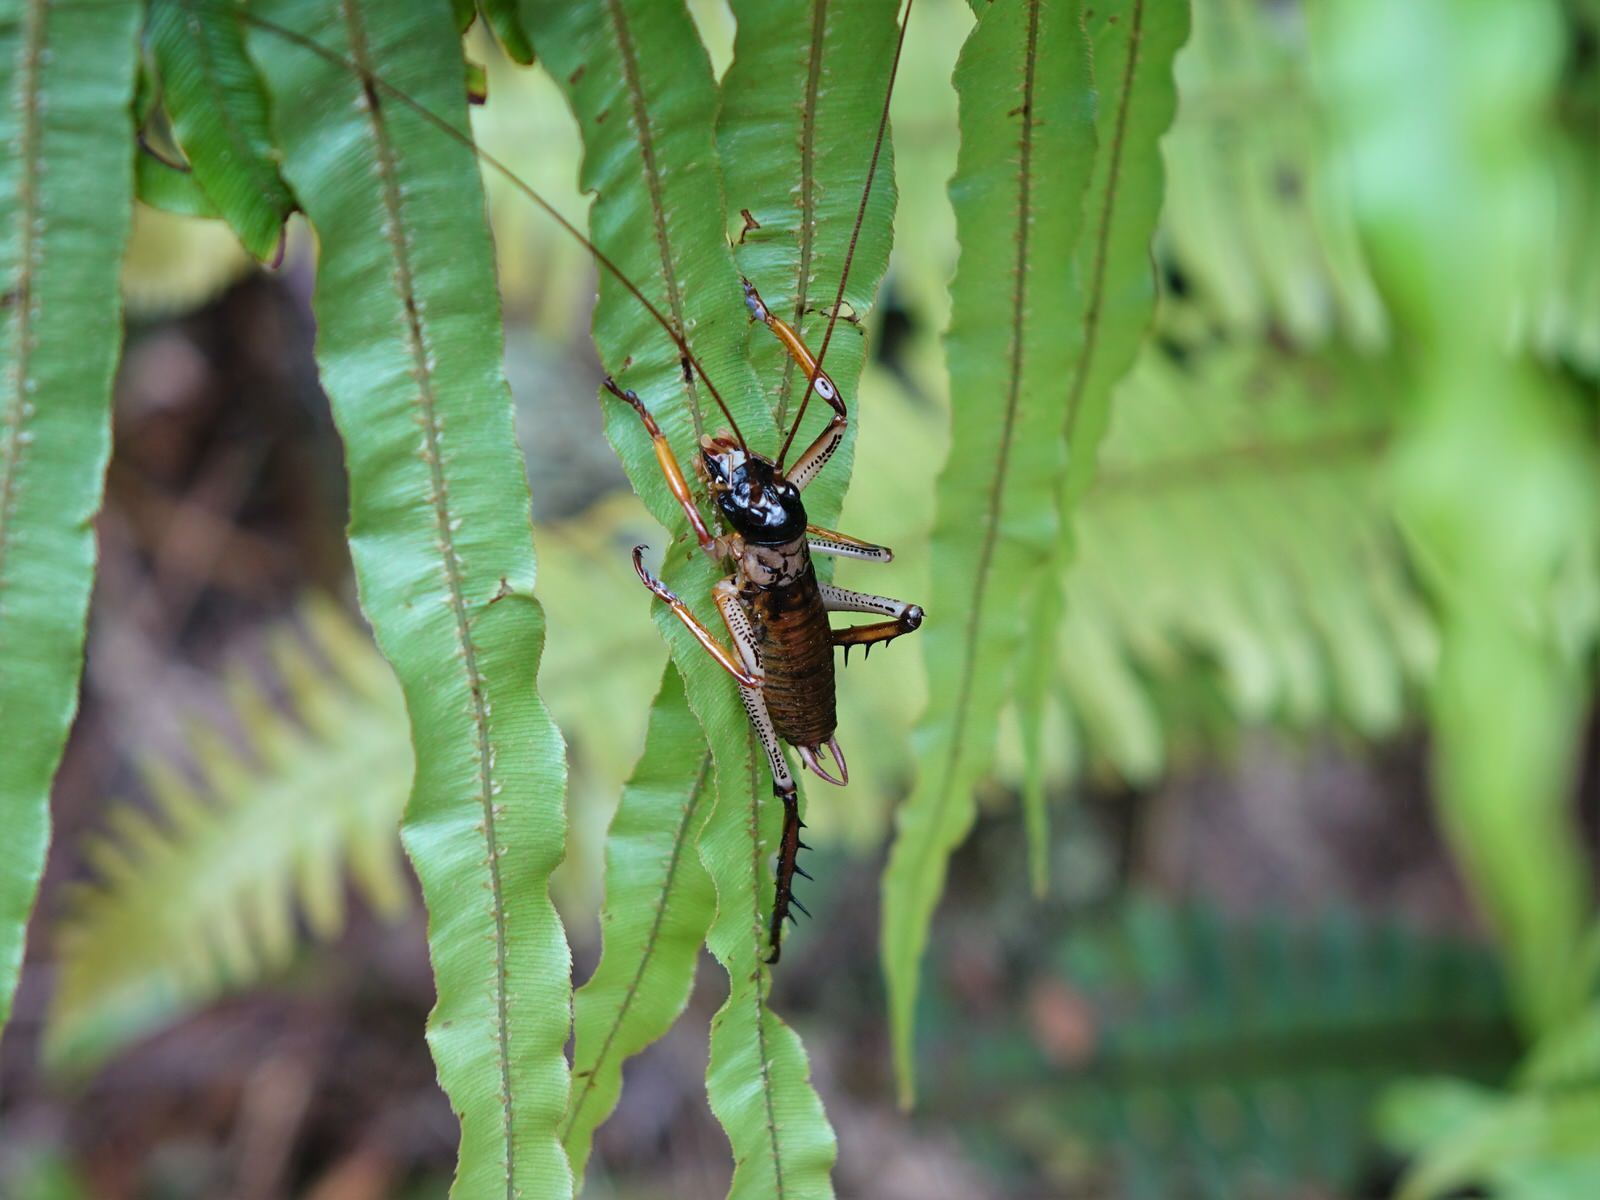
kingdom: Animalia
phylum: Arthropoda
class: Insecta
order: Orthoptera
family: Anostostomatidae
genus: Hemideina
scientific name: Hemideina thoracica
